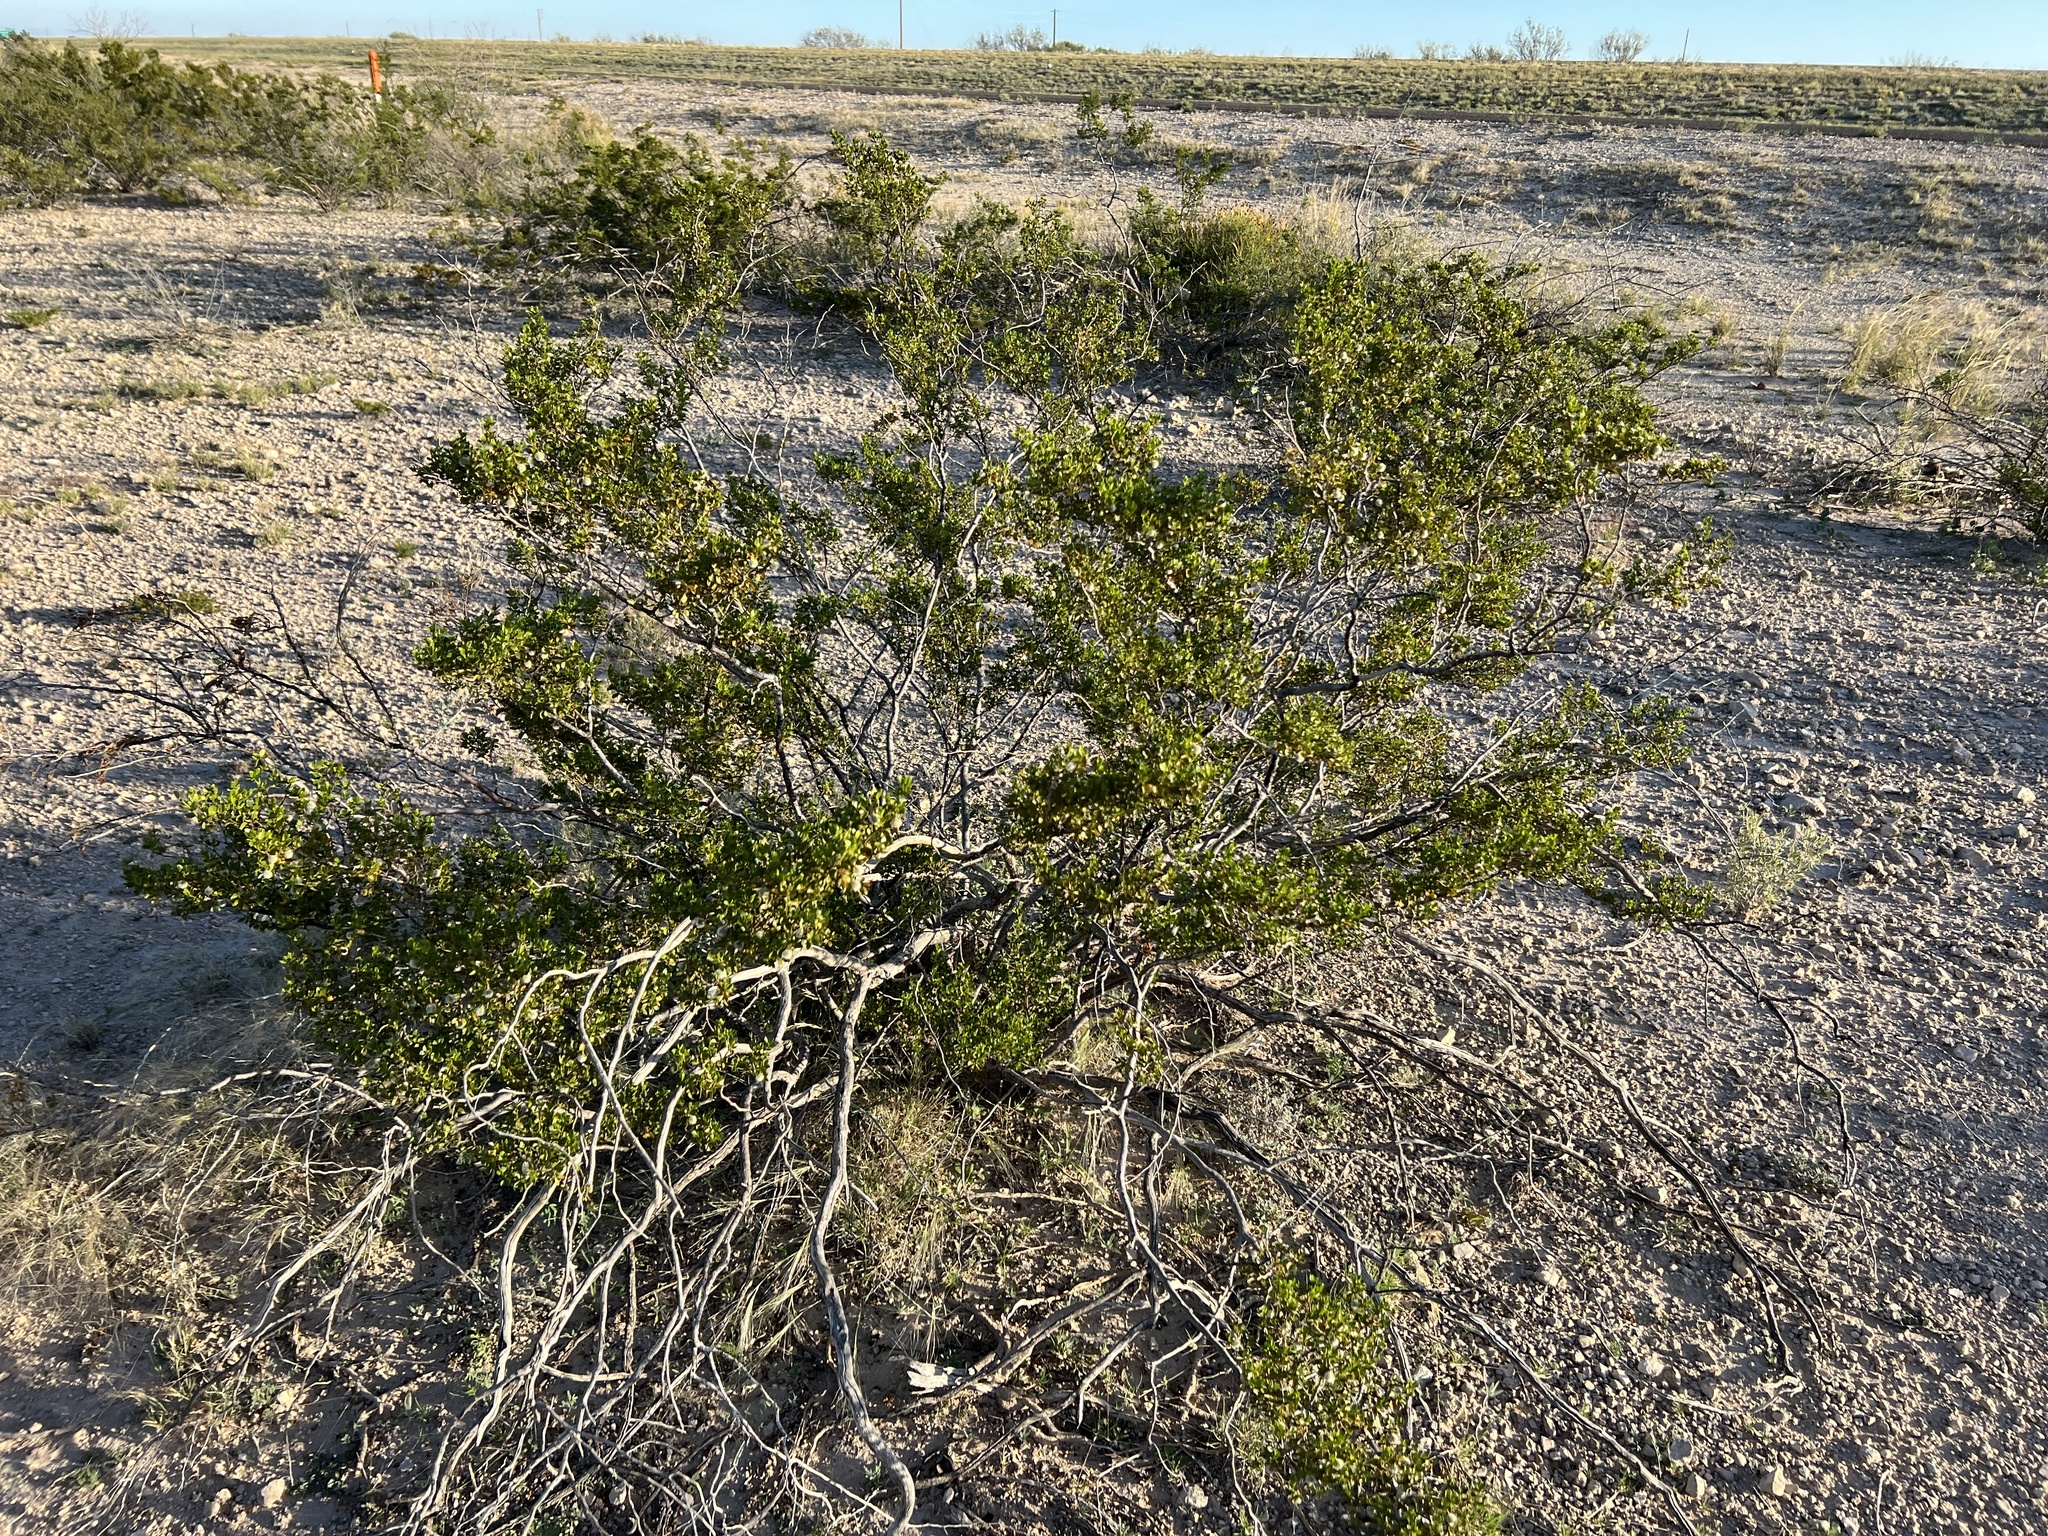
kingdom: Plantae
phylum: Tracheophyta
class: Magnoliopsida
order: Zygophyllales
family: Zygophyllaceae
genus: Larrea
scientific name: Larrea tridentata
